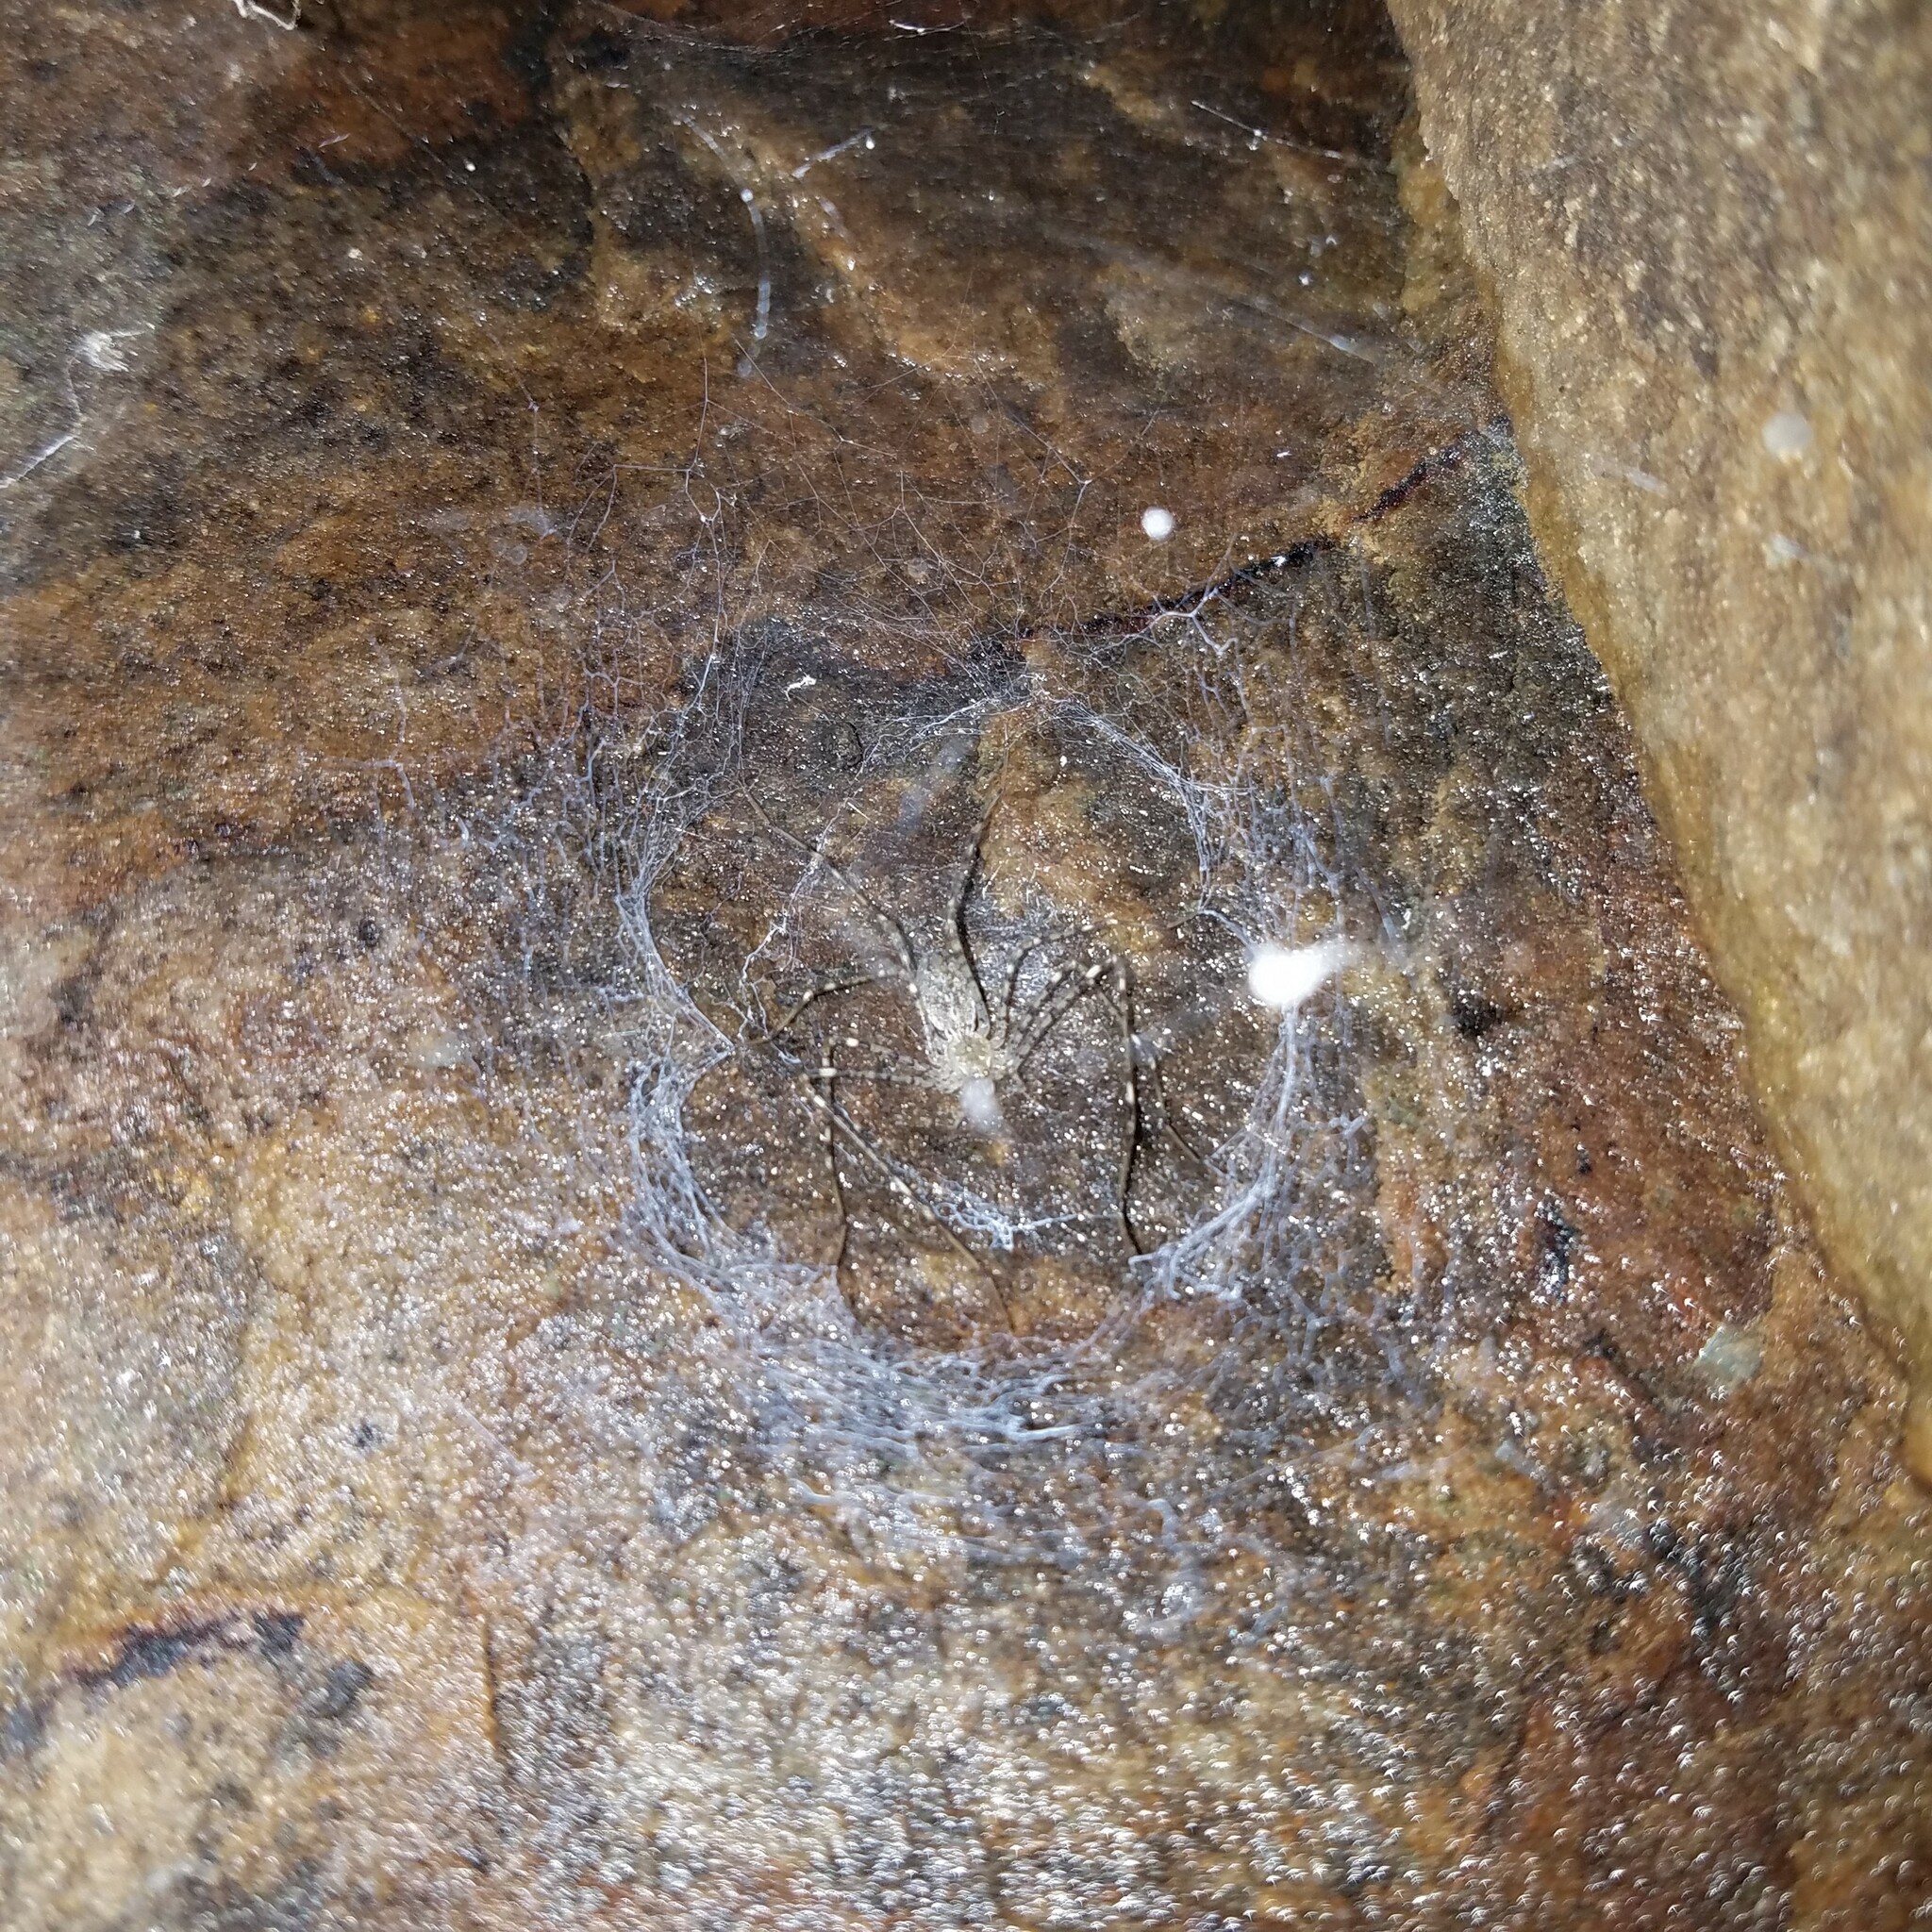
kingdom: Animalia
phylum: Arthropoda
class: Arachnida
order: Araneae
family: Hypochilidae
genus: Hypochilus
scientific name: Hypochilus thorelli
